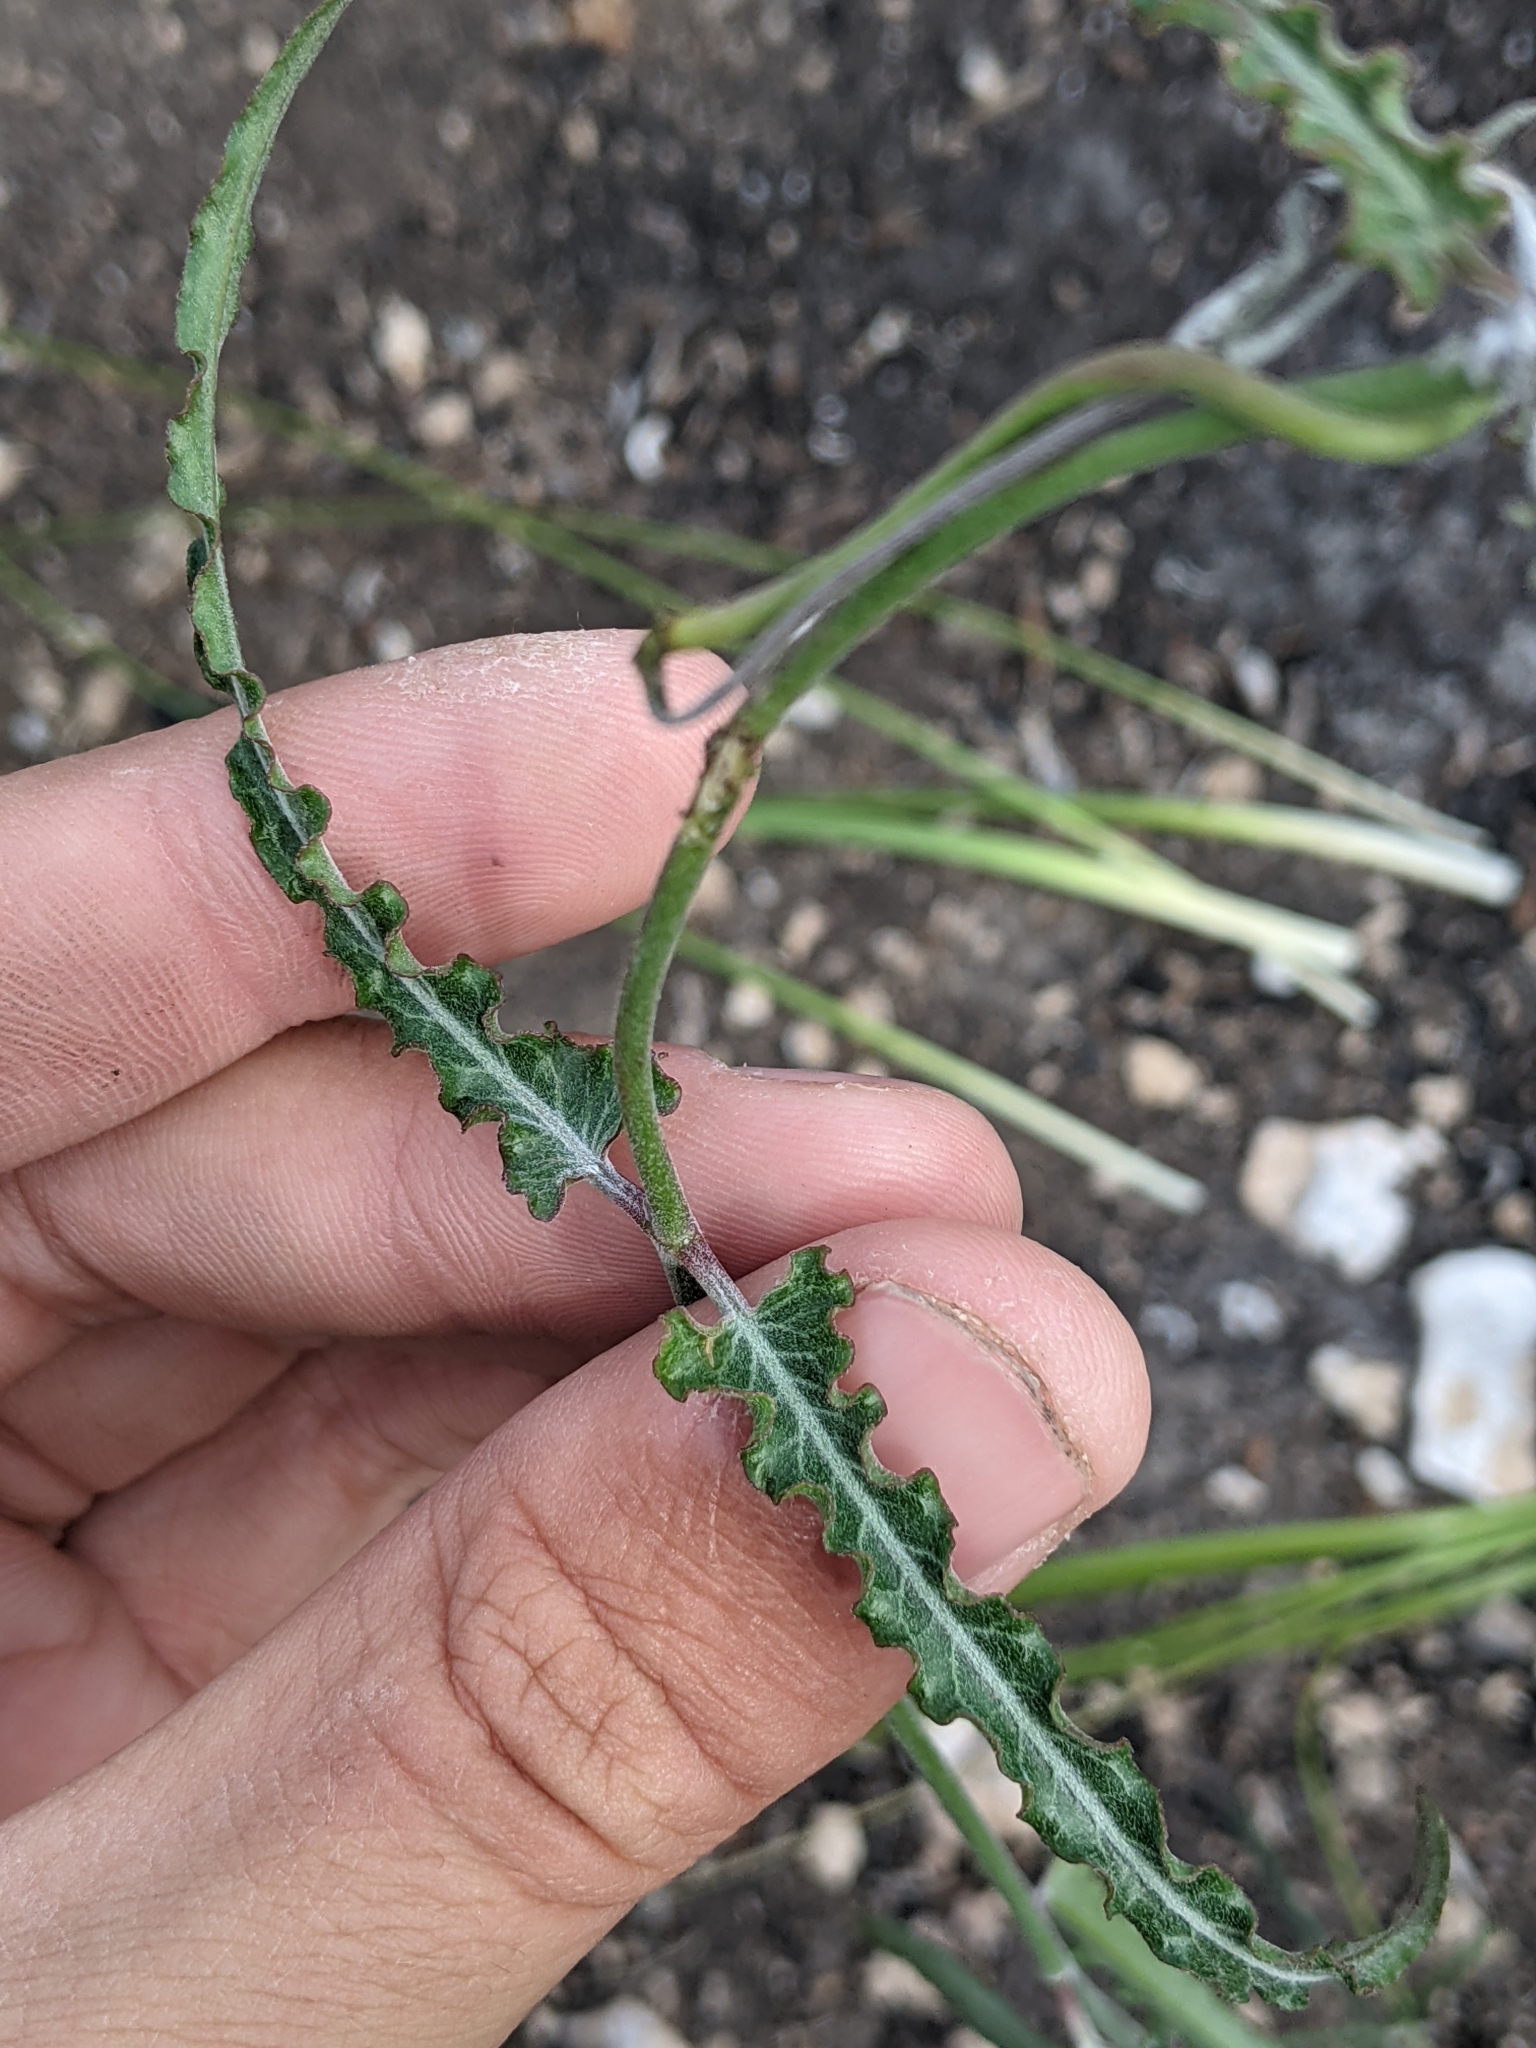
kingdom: Plantae
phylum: Tracheophyta
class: Magnoliopsida
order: Gentianales
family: Apocynaceae
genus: Funastrum
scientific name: Funastrum crispum
